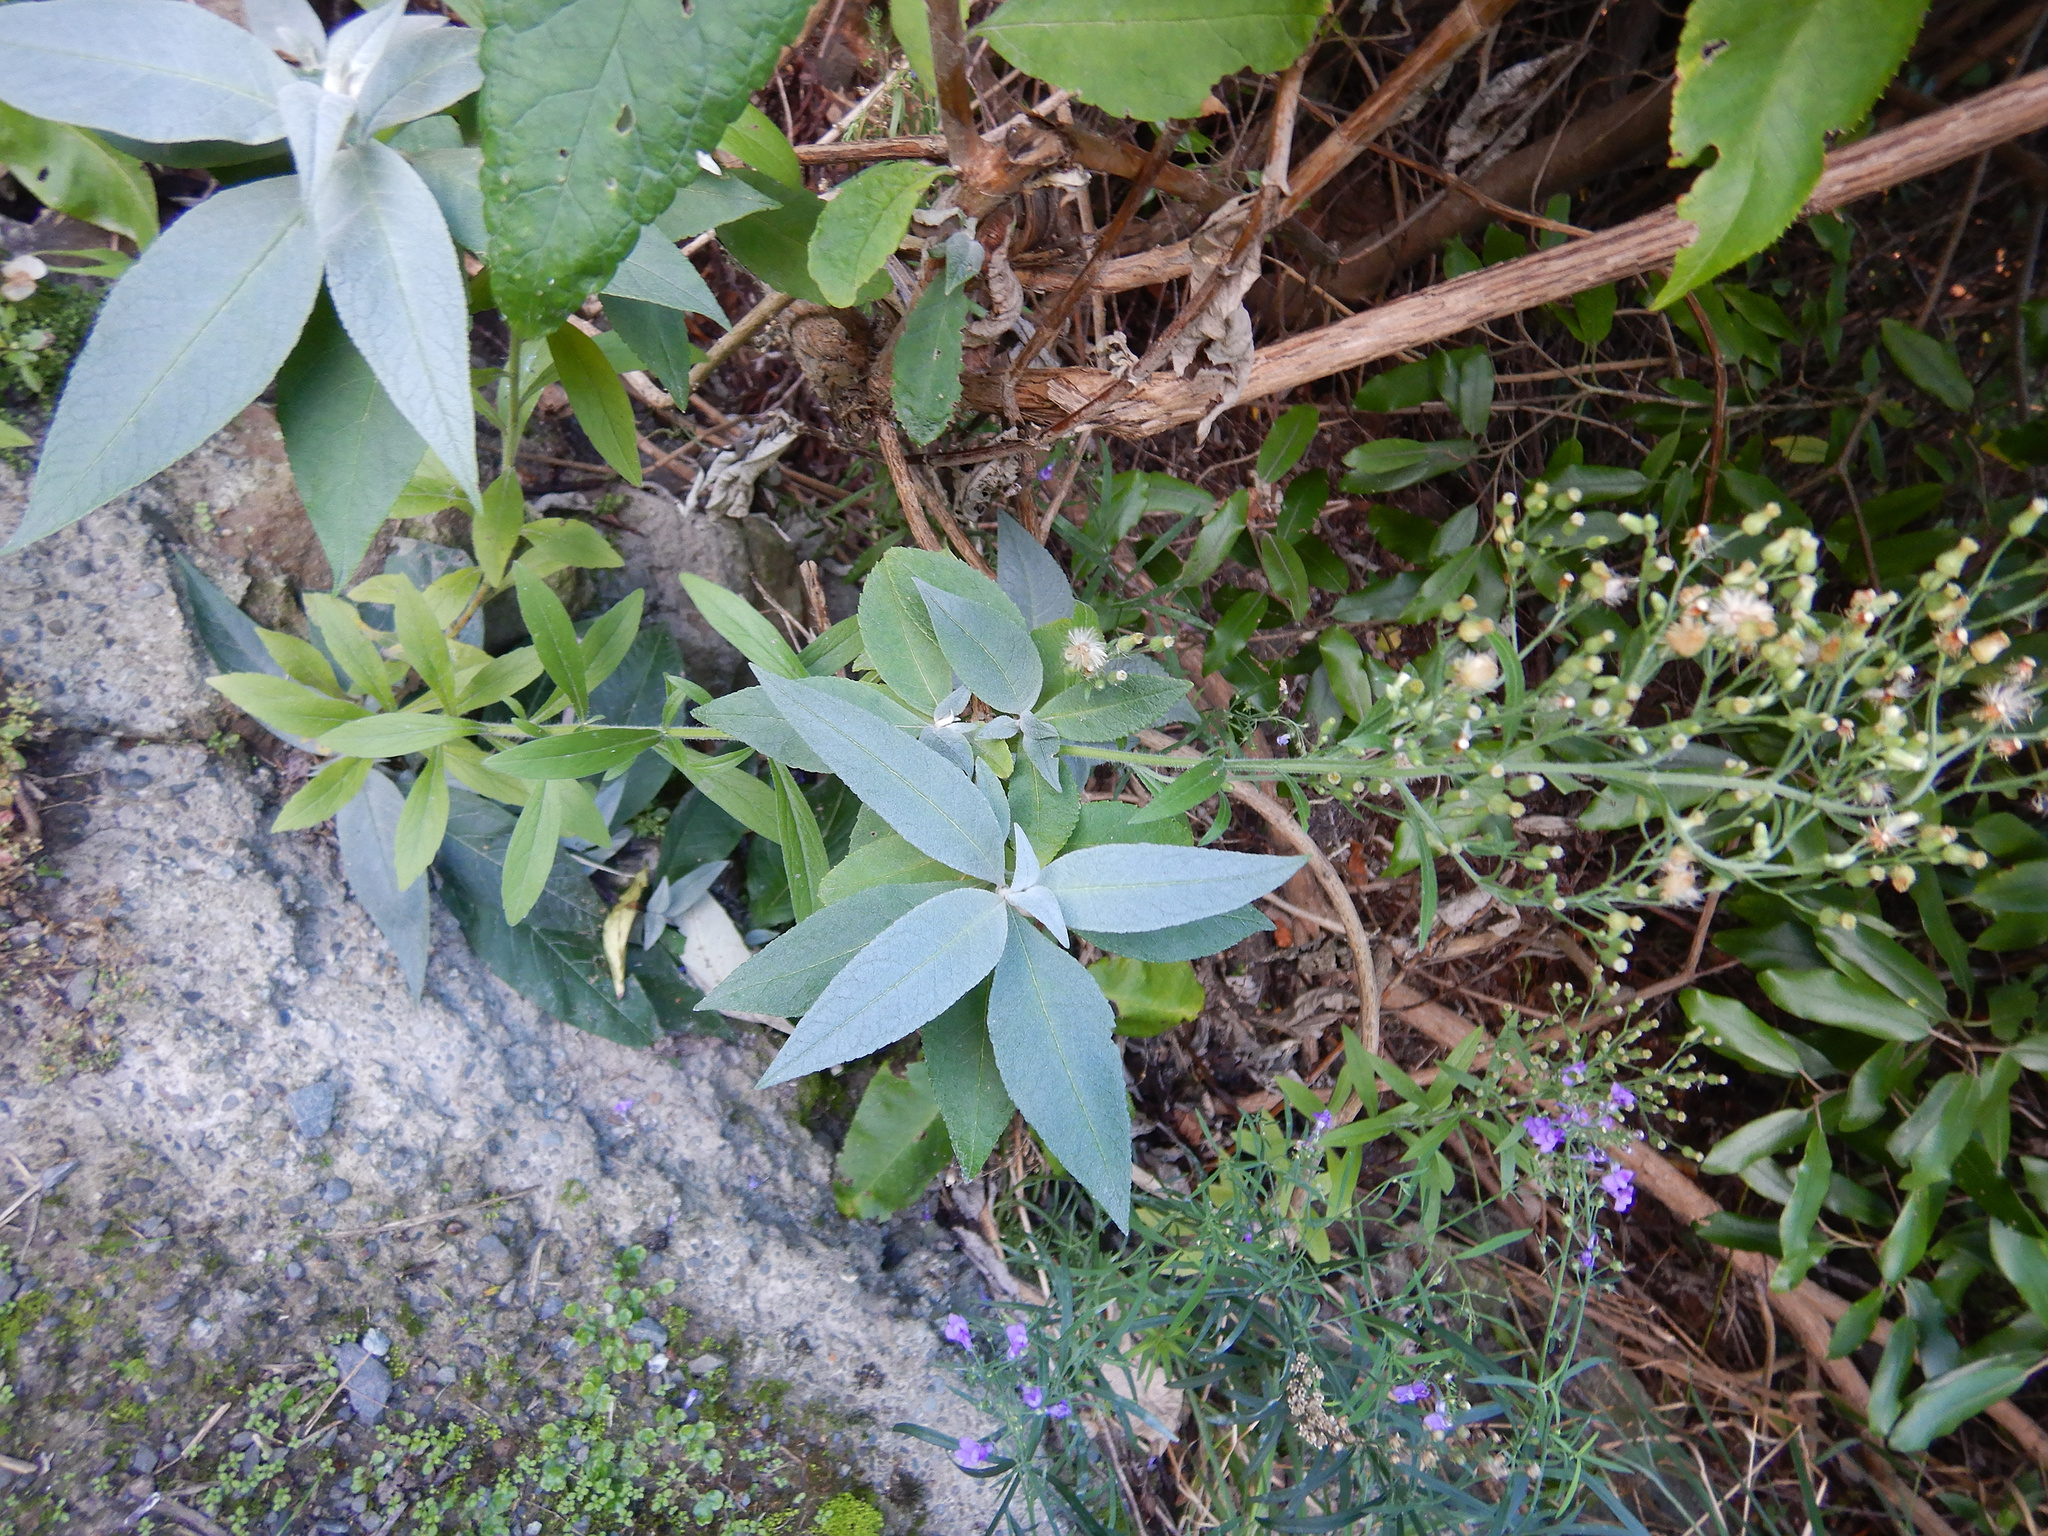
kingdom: Plantae
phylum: Tracheophyta
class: Magnoliopsida
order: Lamiales
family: Scrophulariaceae
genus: Buddleja
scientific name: Buddleja davidii
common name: Butterfly-bush
